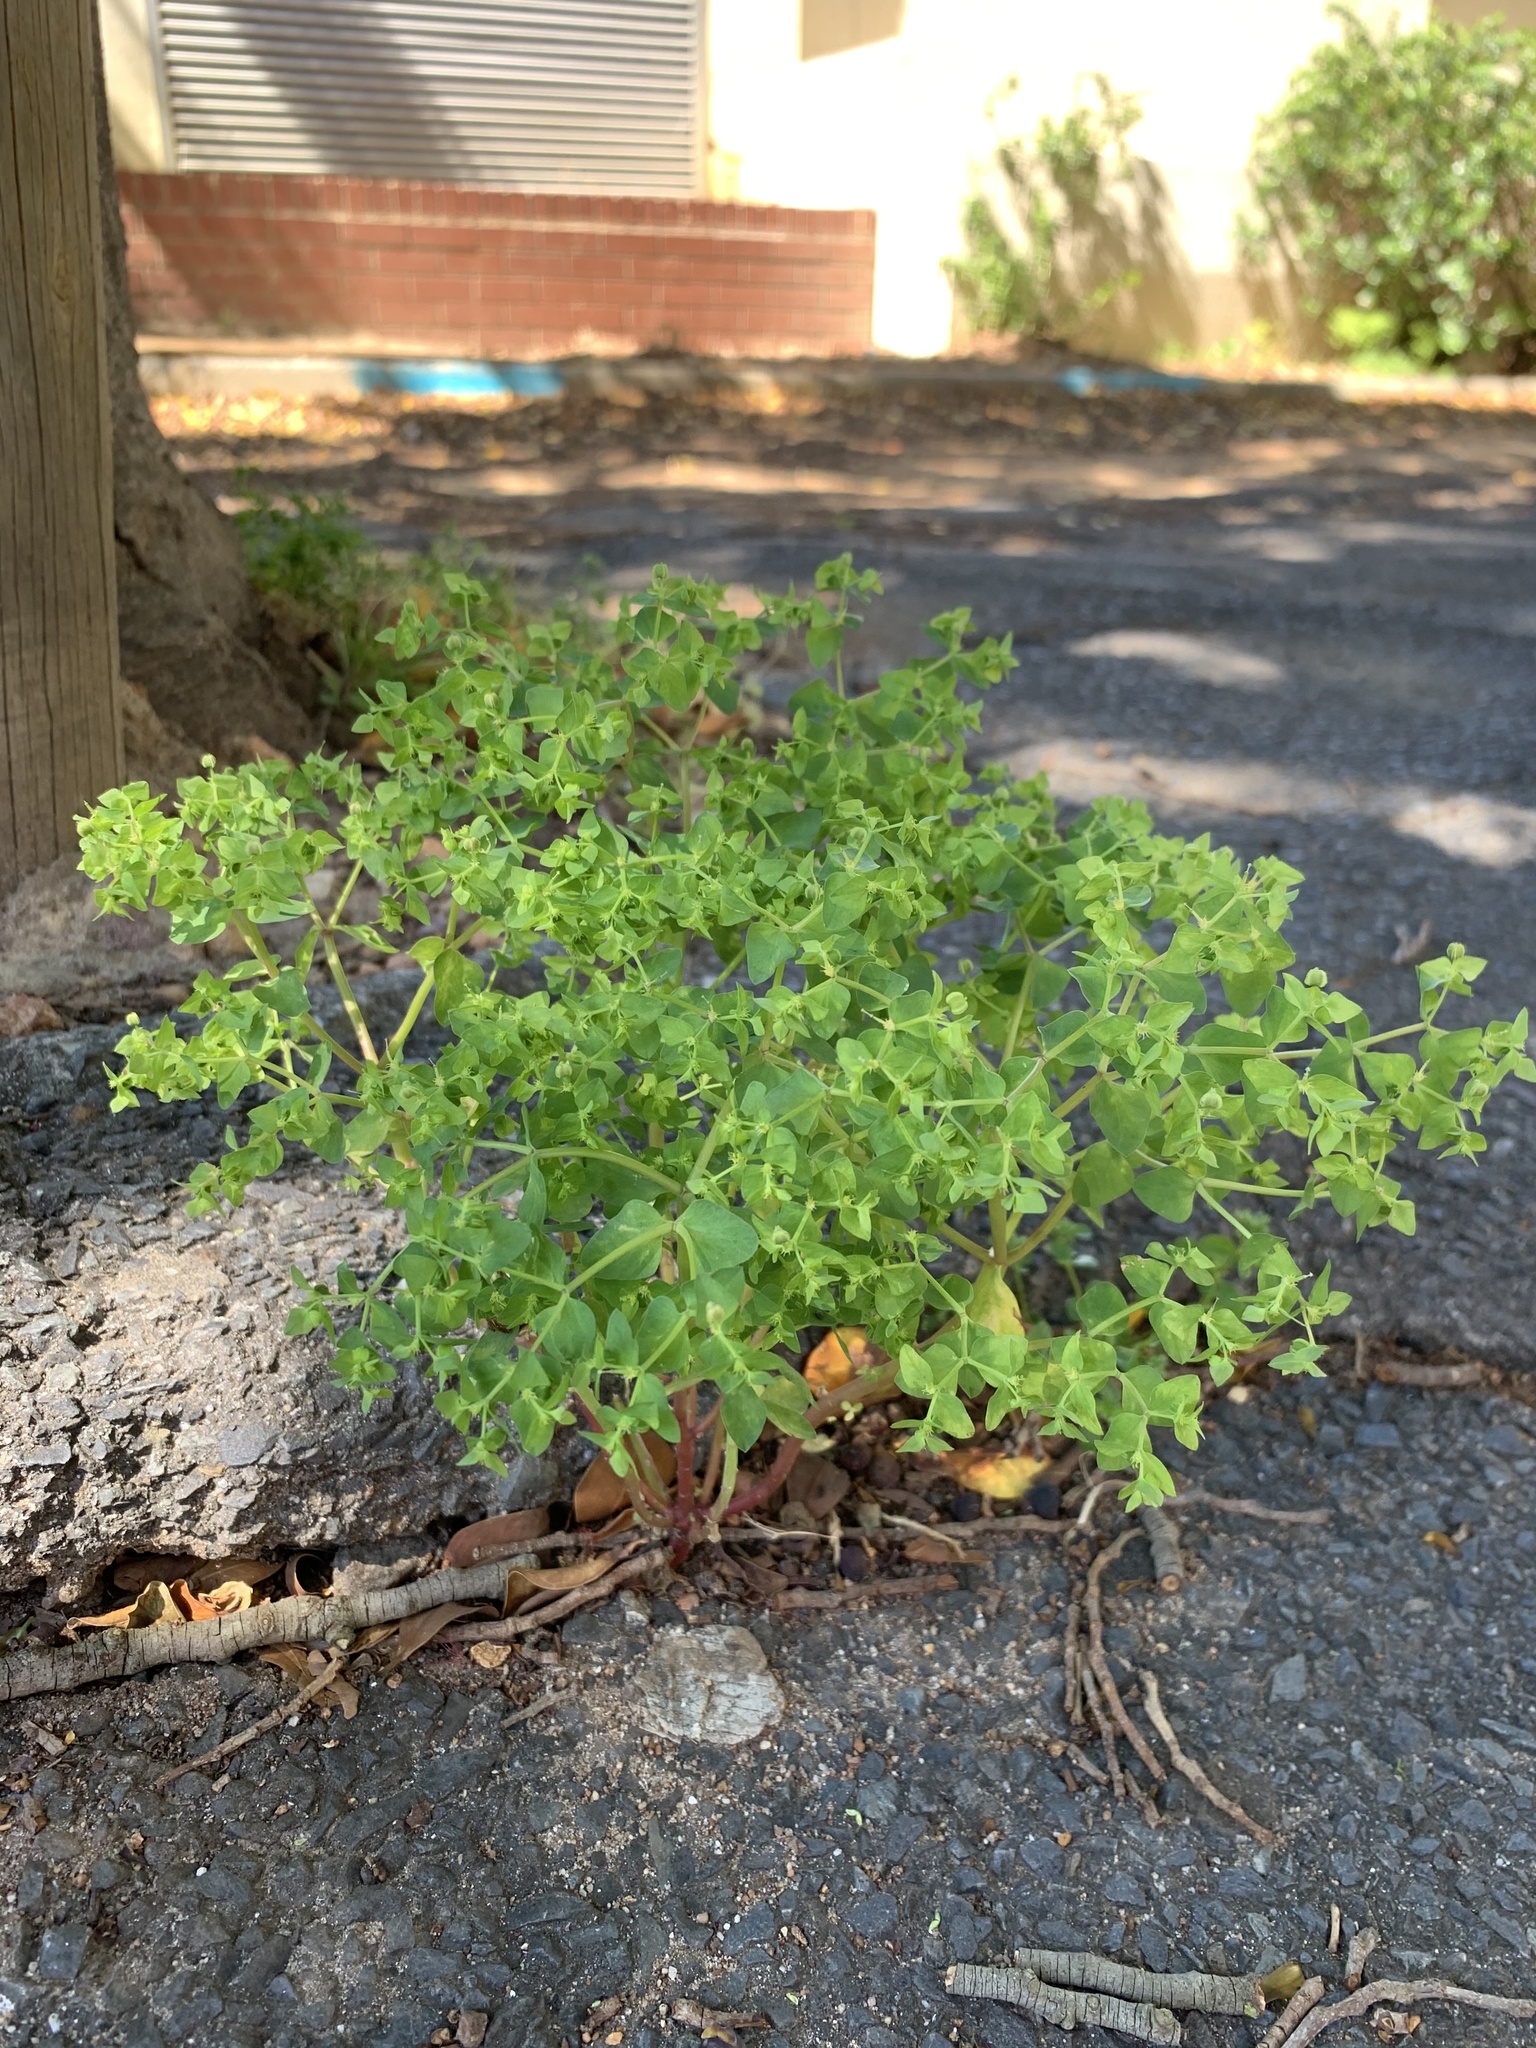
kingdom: Plantae
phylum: Tracheophyta
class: Magnoliopsida
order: Malpighiales
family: Euphorbiaceae
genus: Euphorbia
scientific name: Euphorbia peplus
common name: Petty spurge
